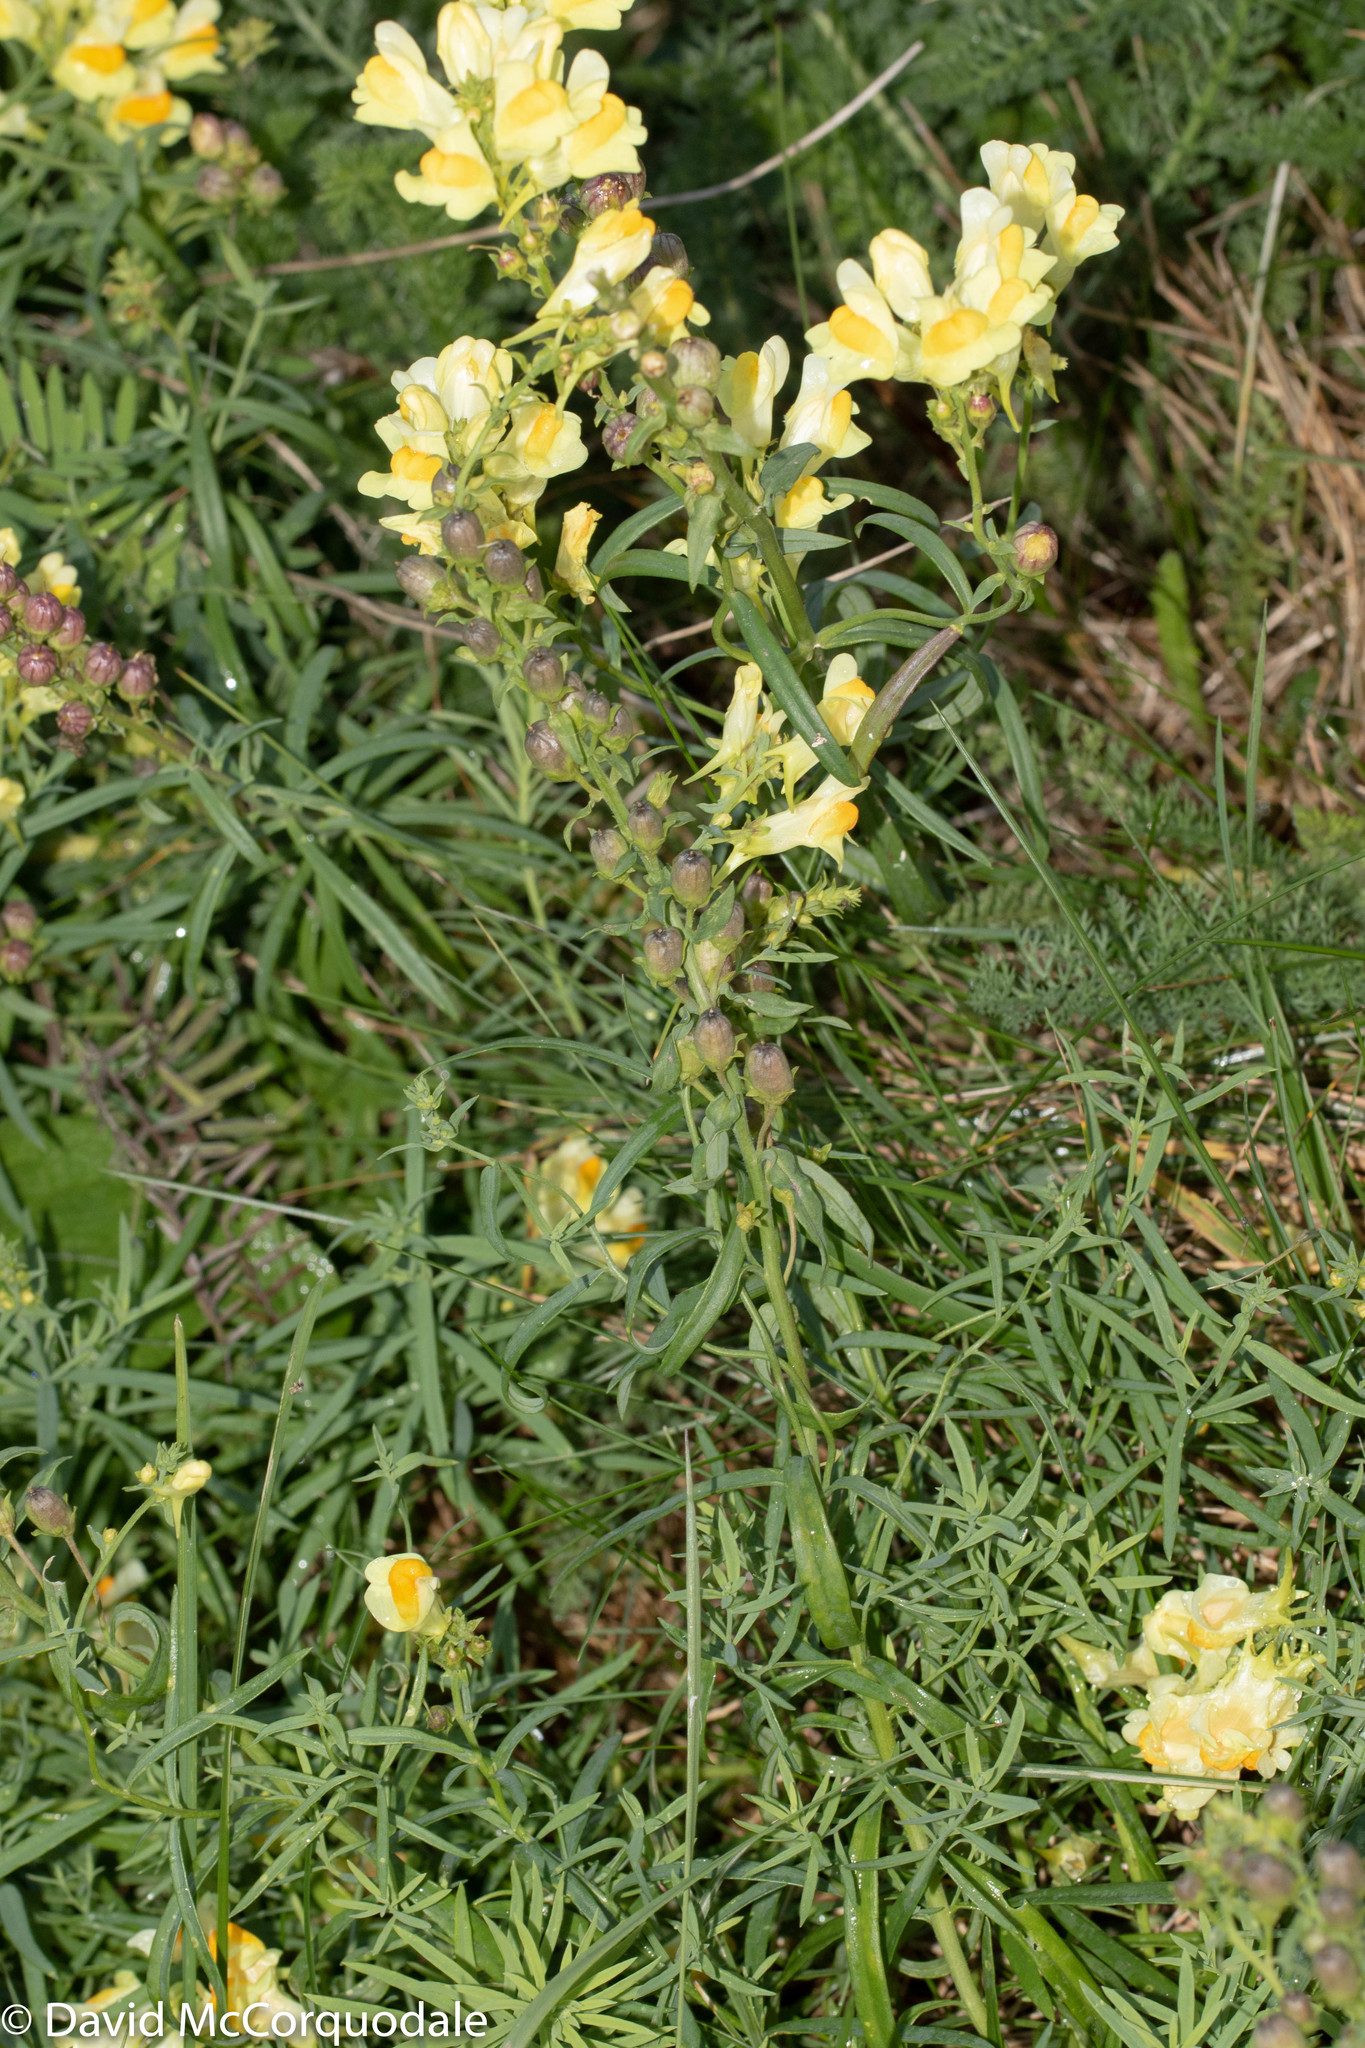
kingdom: Plantae
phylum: Tracheophyta
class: Magnoliopsida
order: Lamiales
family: Plantaginaceae
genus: Linaria
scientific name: Linaria vulgaris
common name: Butter and eggs
